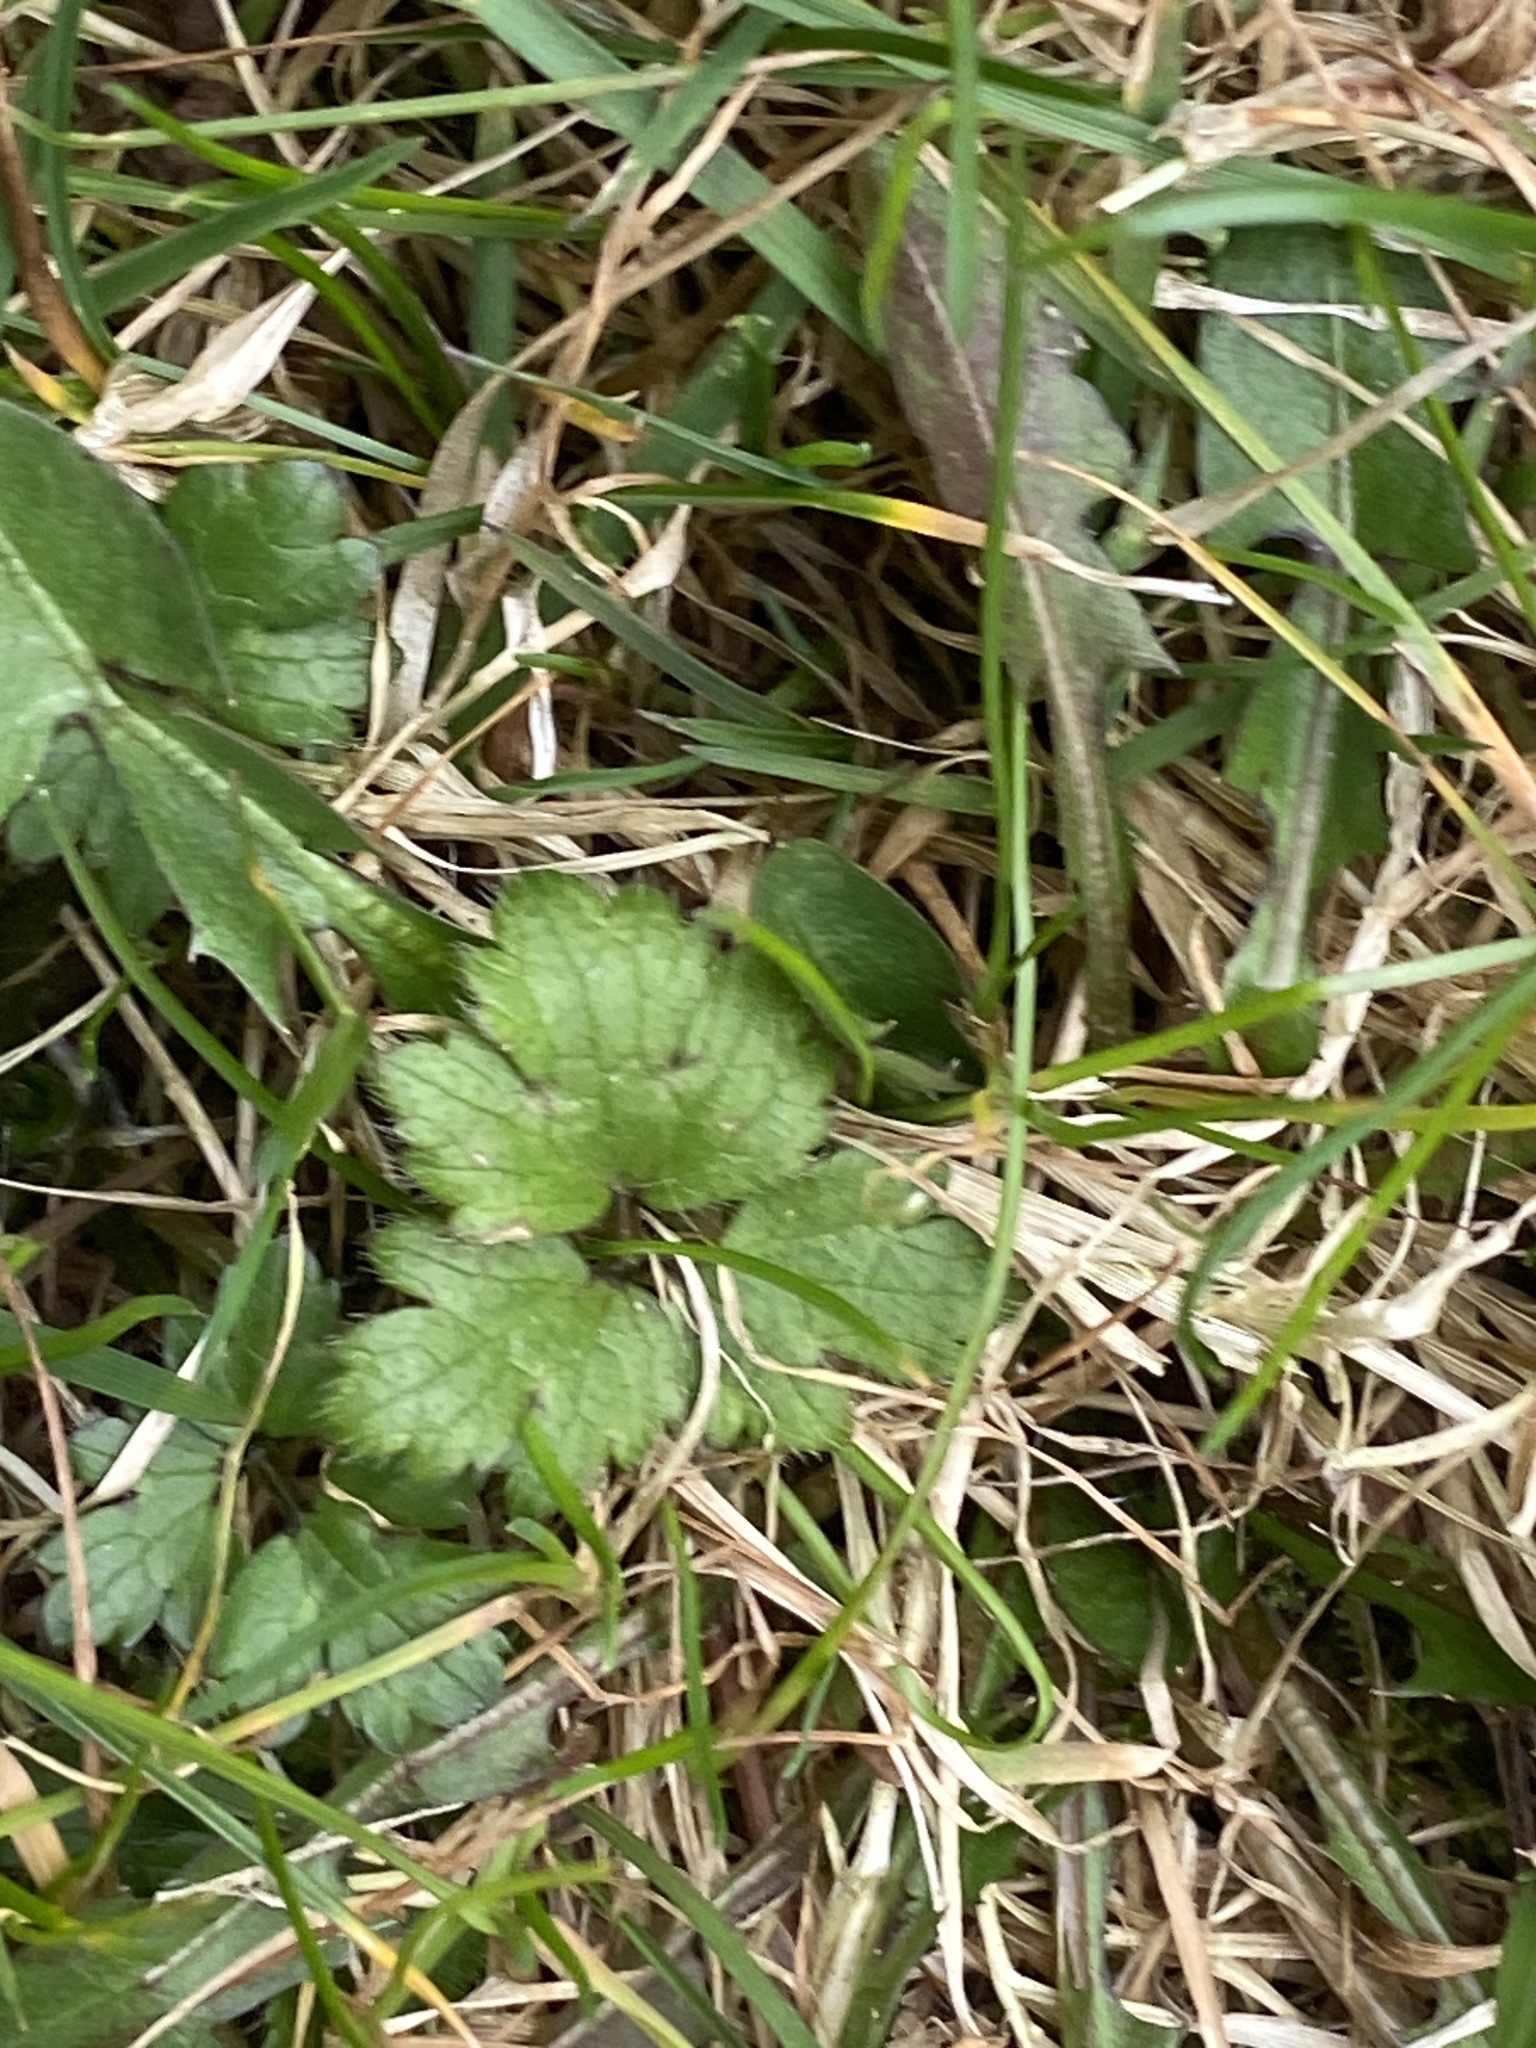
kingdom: Plantae
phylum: Tracheophyta
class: Magnoliopsida
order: Ranunculales
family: Ranunculaceae
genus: Ranunculus
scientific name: Ranunculus repens
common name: Creeping buttercup
